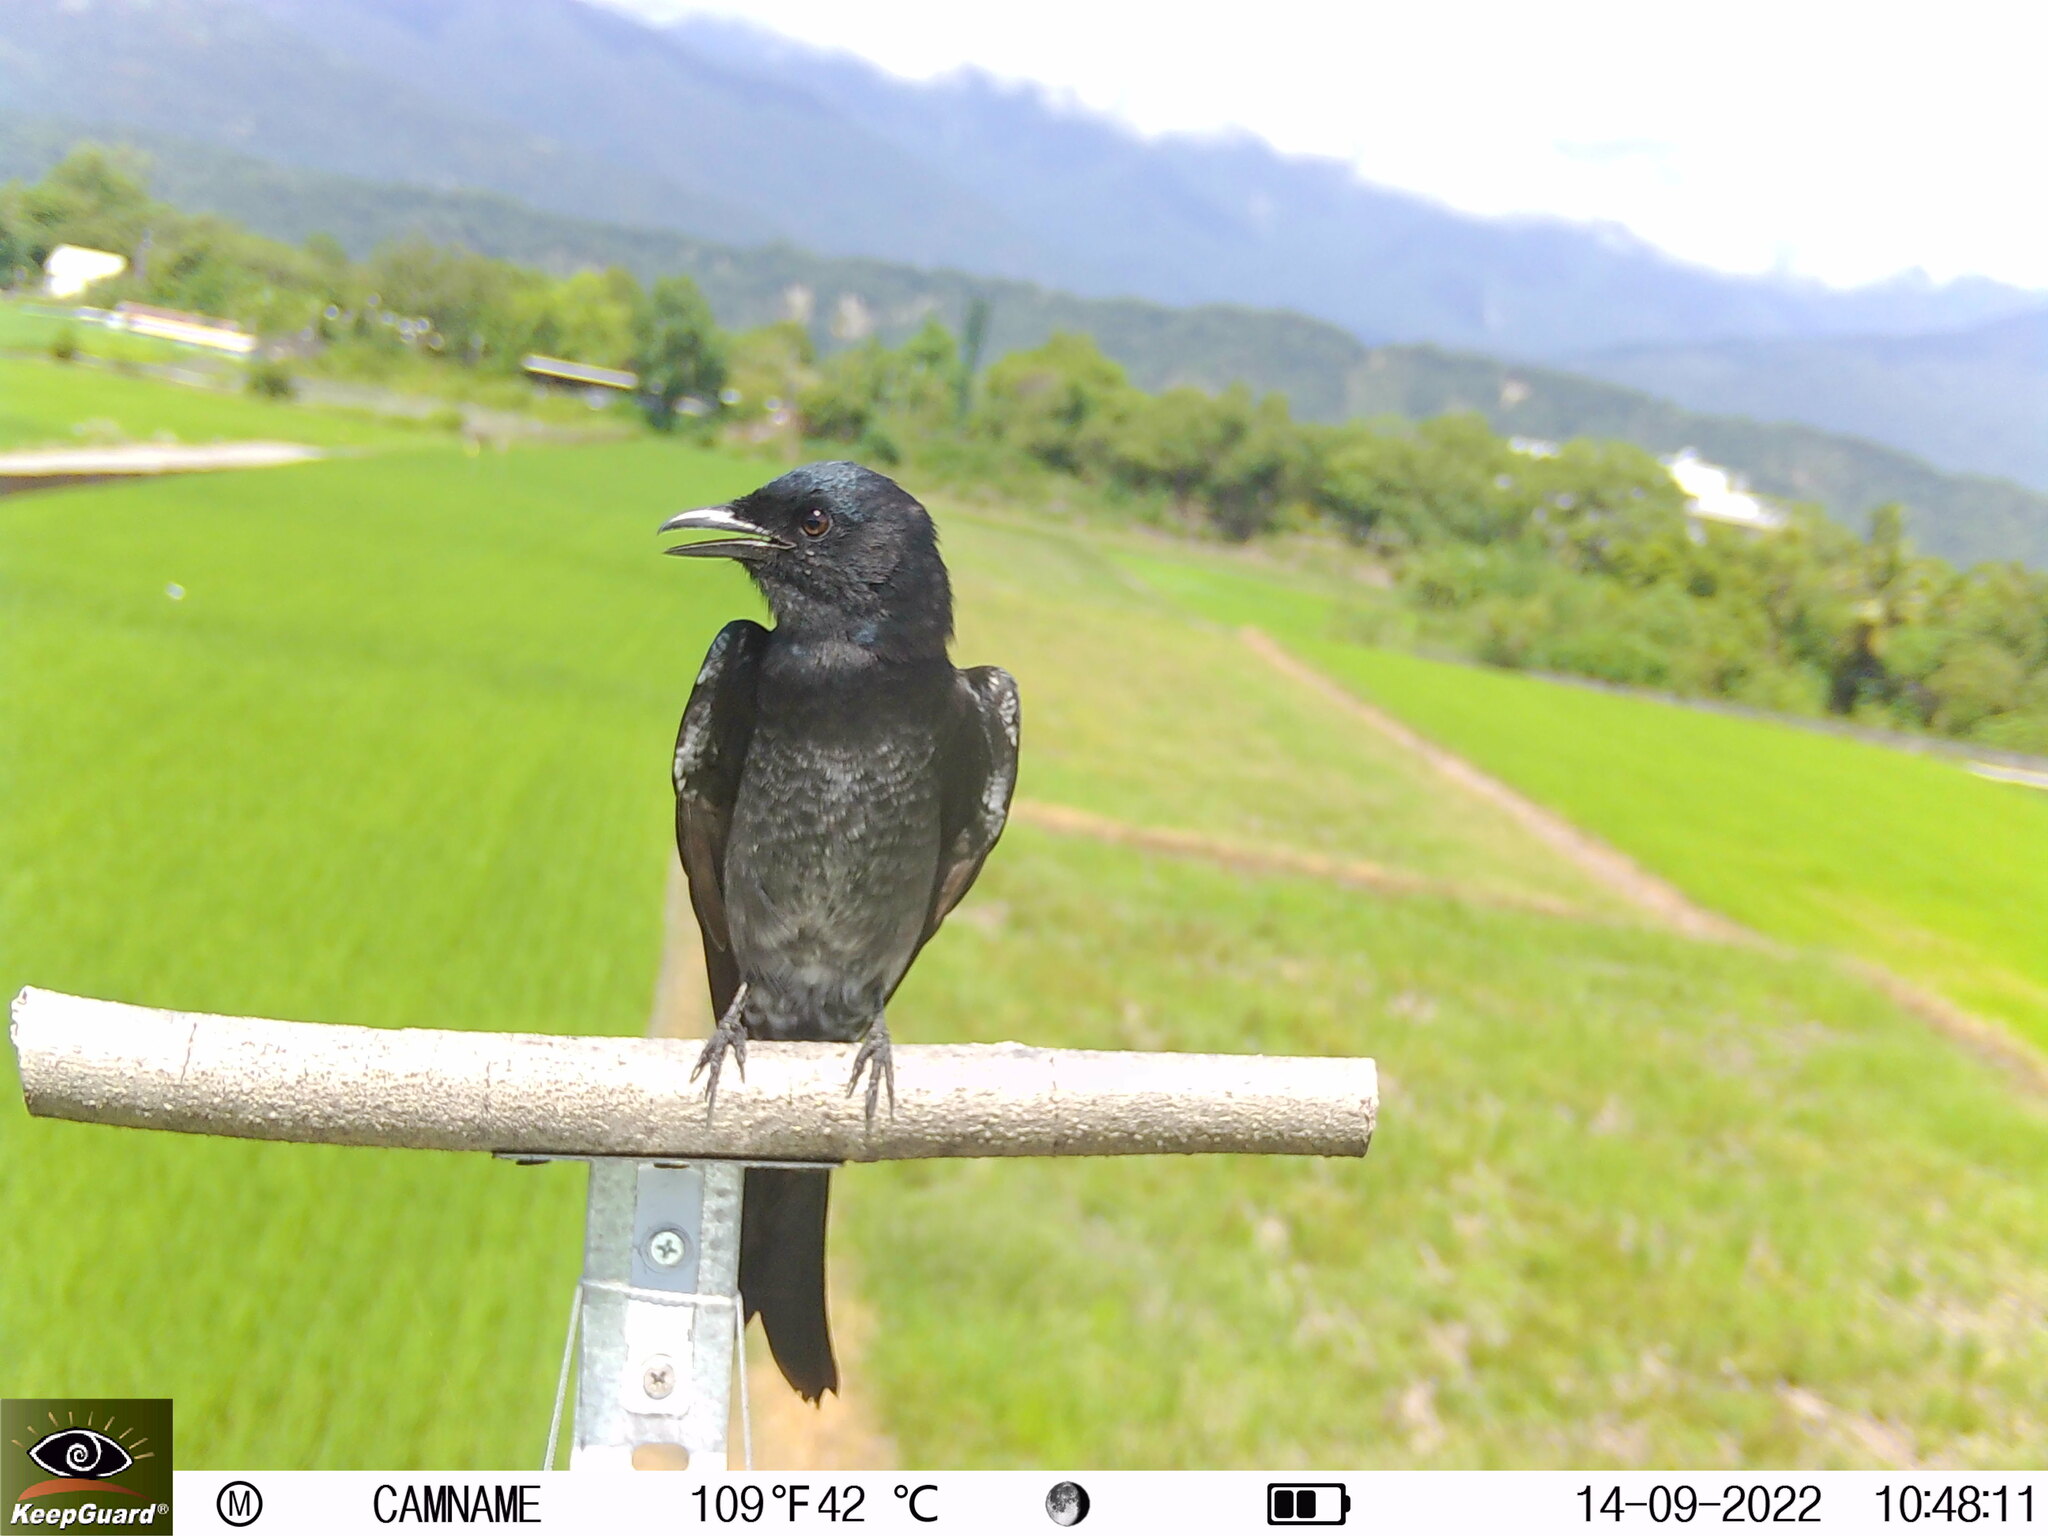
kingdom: Animalia
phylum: Chordata
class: Aves
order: Passeriformes
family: Dicruridae
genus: Dicrurus
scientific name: Dicrurus macrocercus
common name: Black drongo
